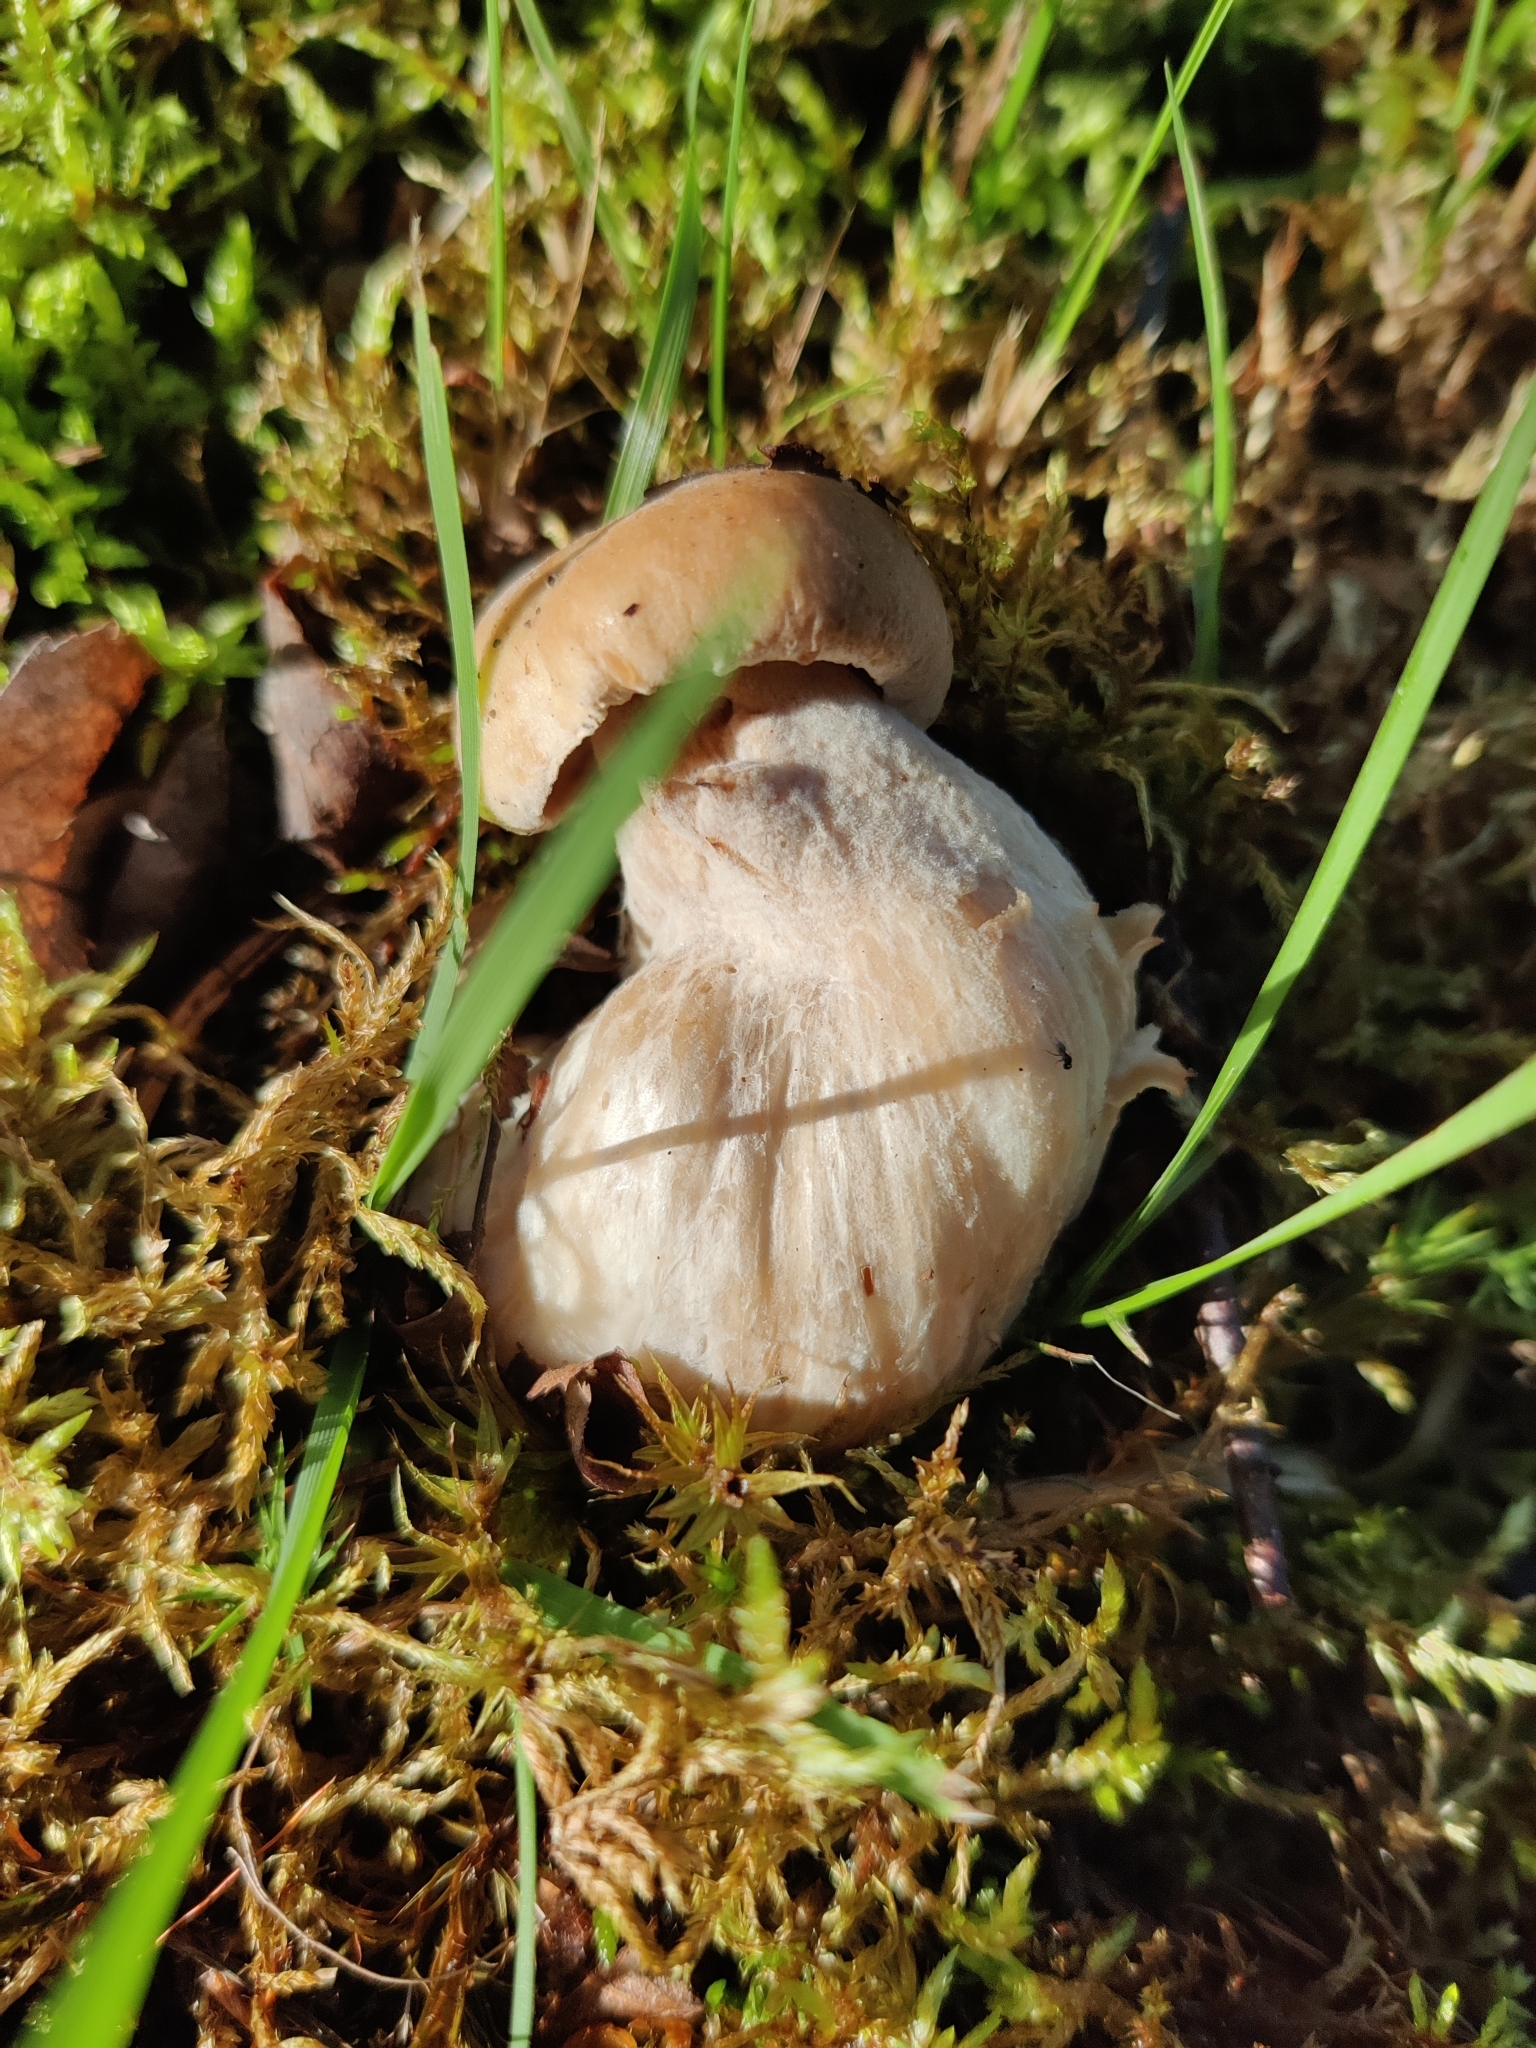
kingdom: Fungi
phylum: Basidiomycota
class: Agaricomycetes
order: Boletales
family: Boletaceae
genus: Boletus
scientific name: Boletus edulis
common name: Cep
